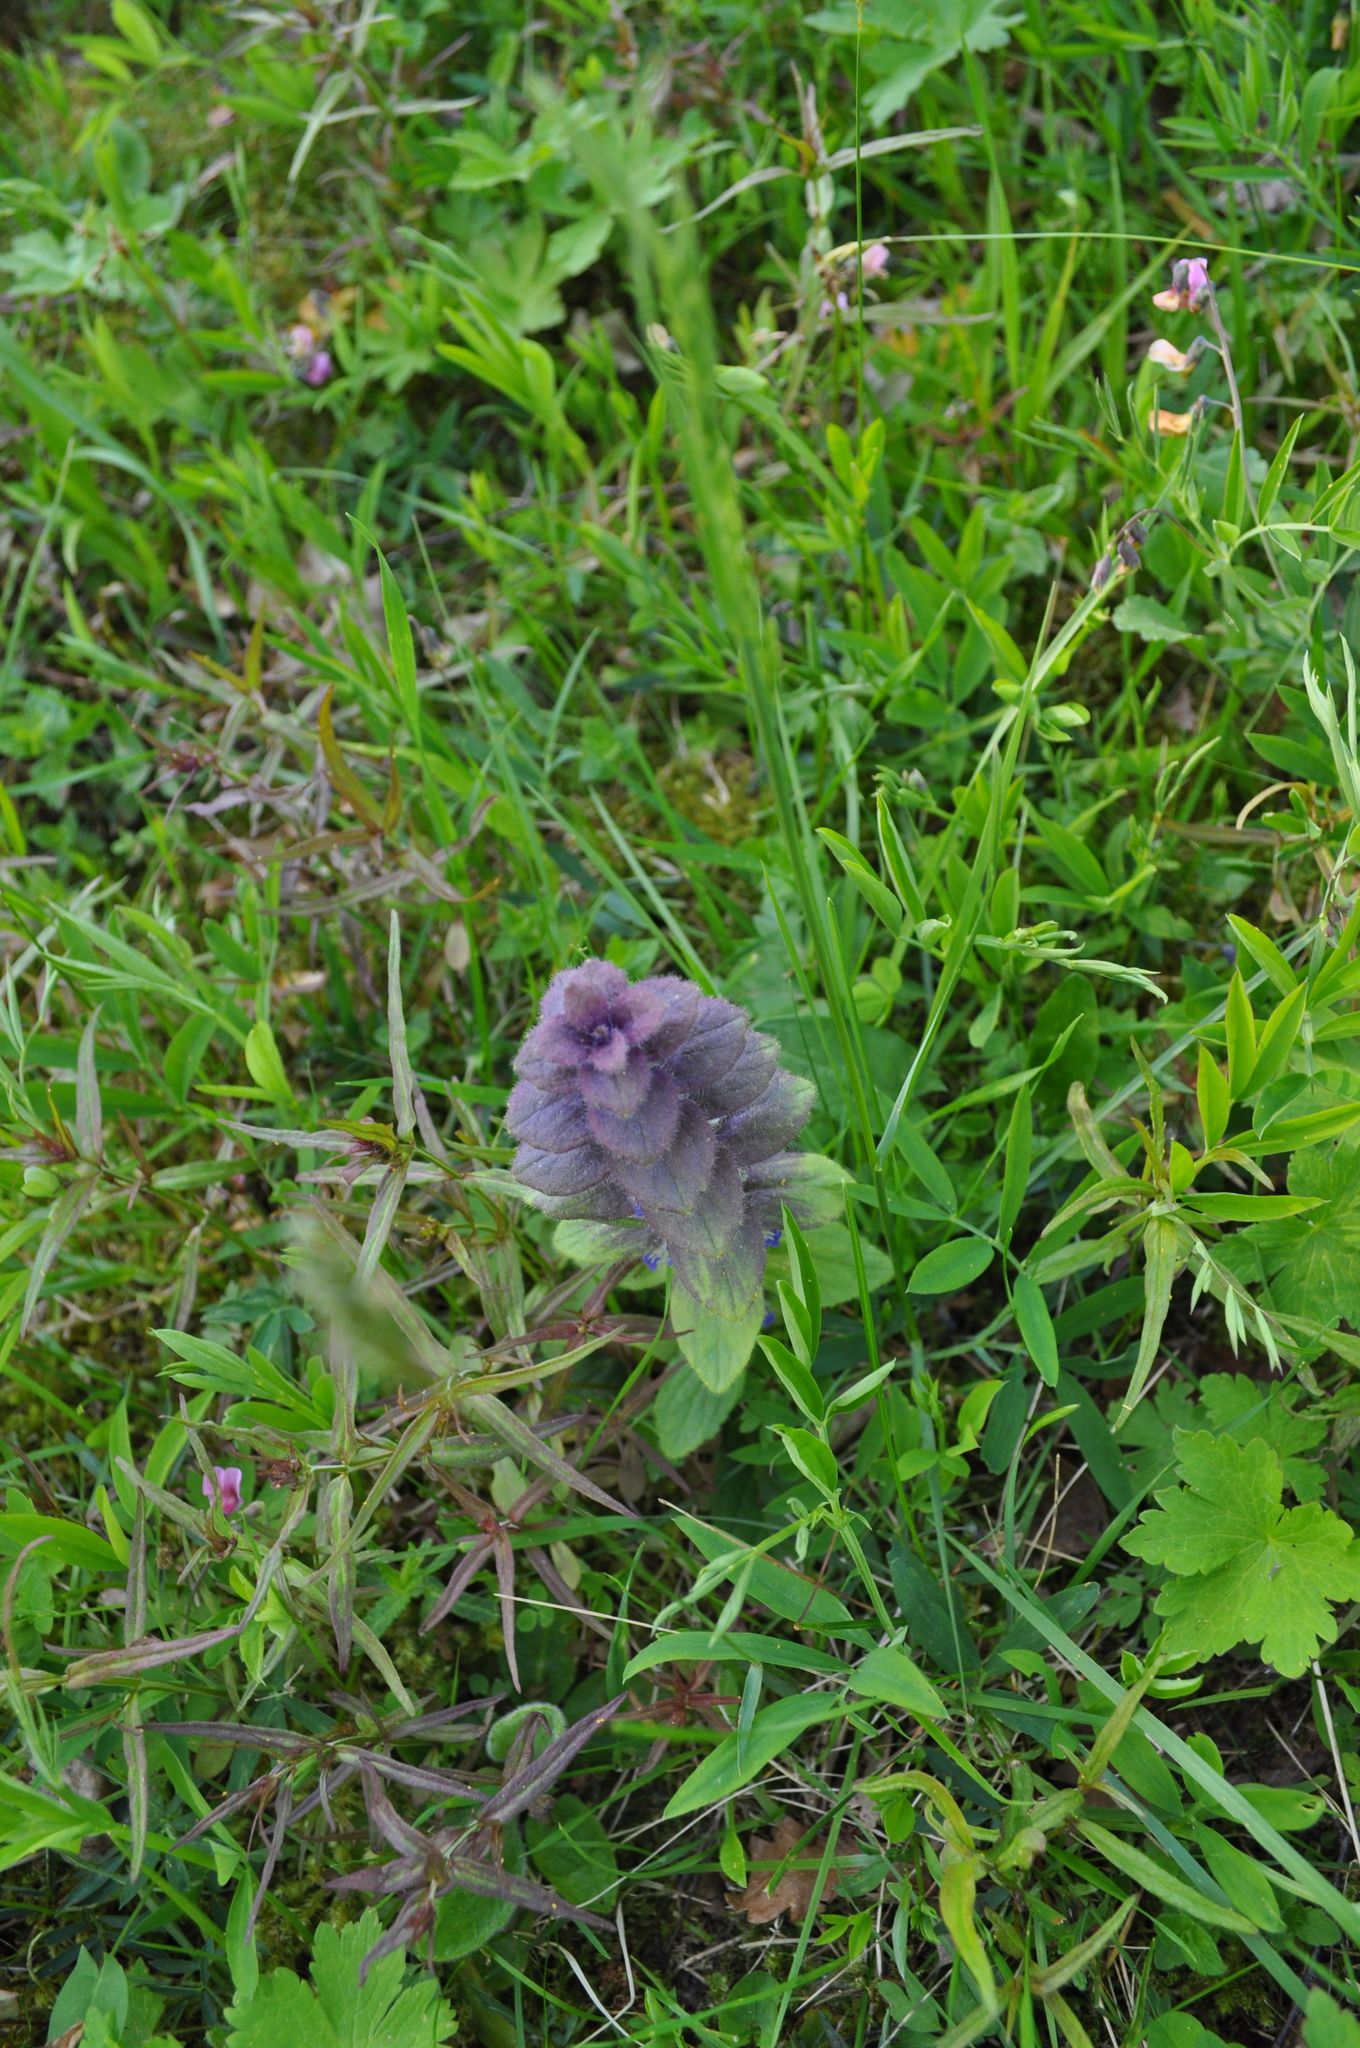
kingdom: Plantae
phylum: Tracheophyta
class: Magnoliopsida
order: Lamiales
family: Lamiaceae
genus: Ajuga
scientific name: Ajuga pyramidalis
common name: Pyramid bugle
